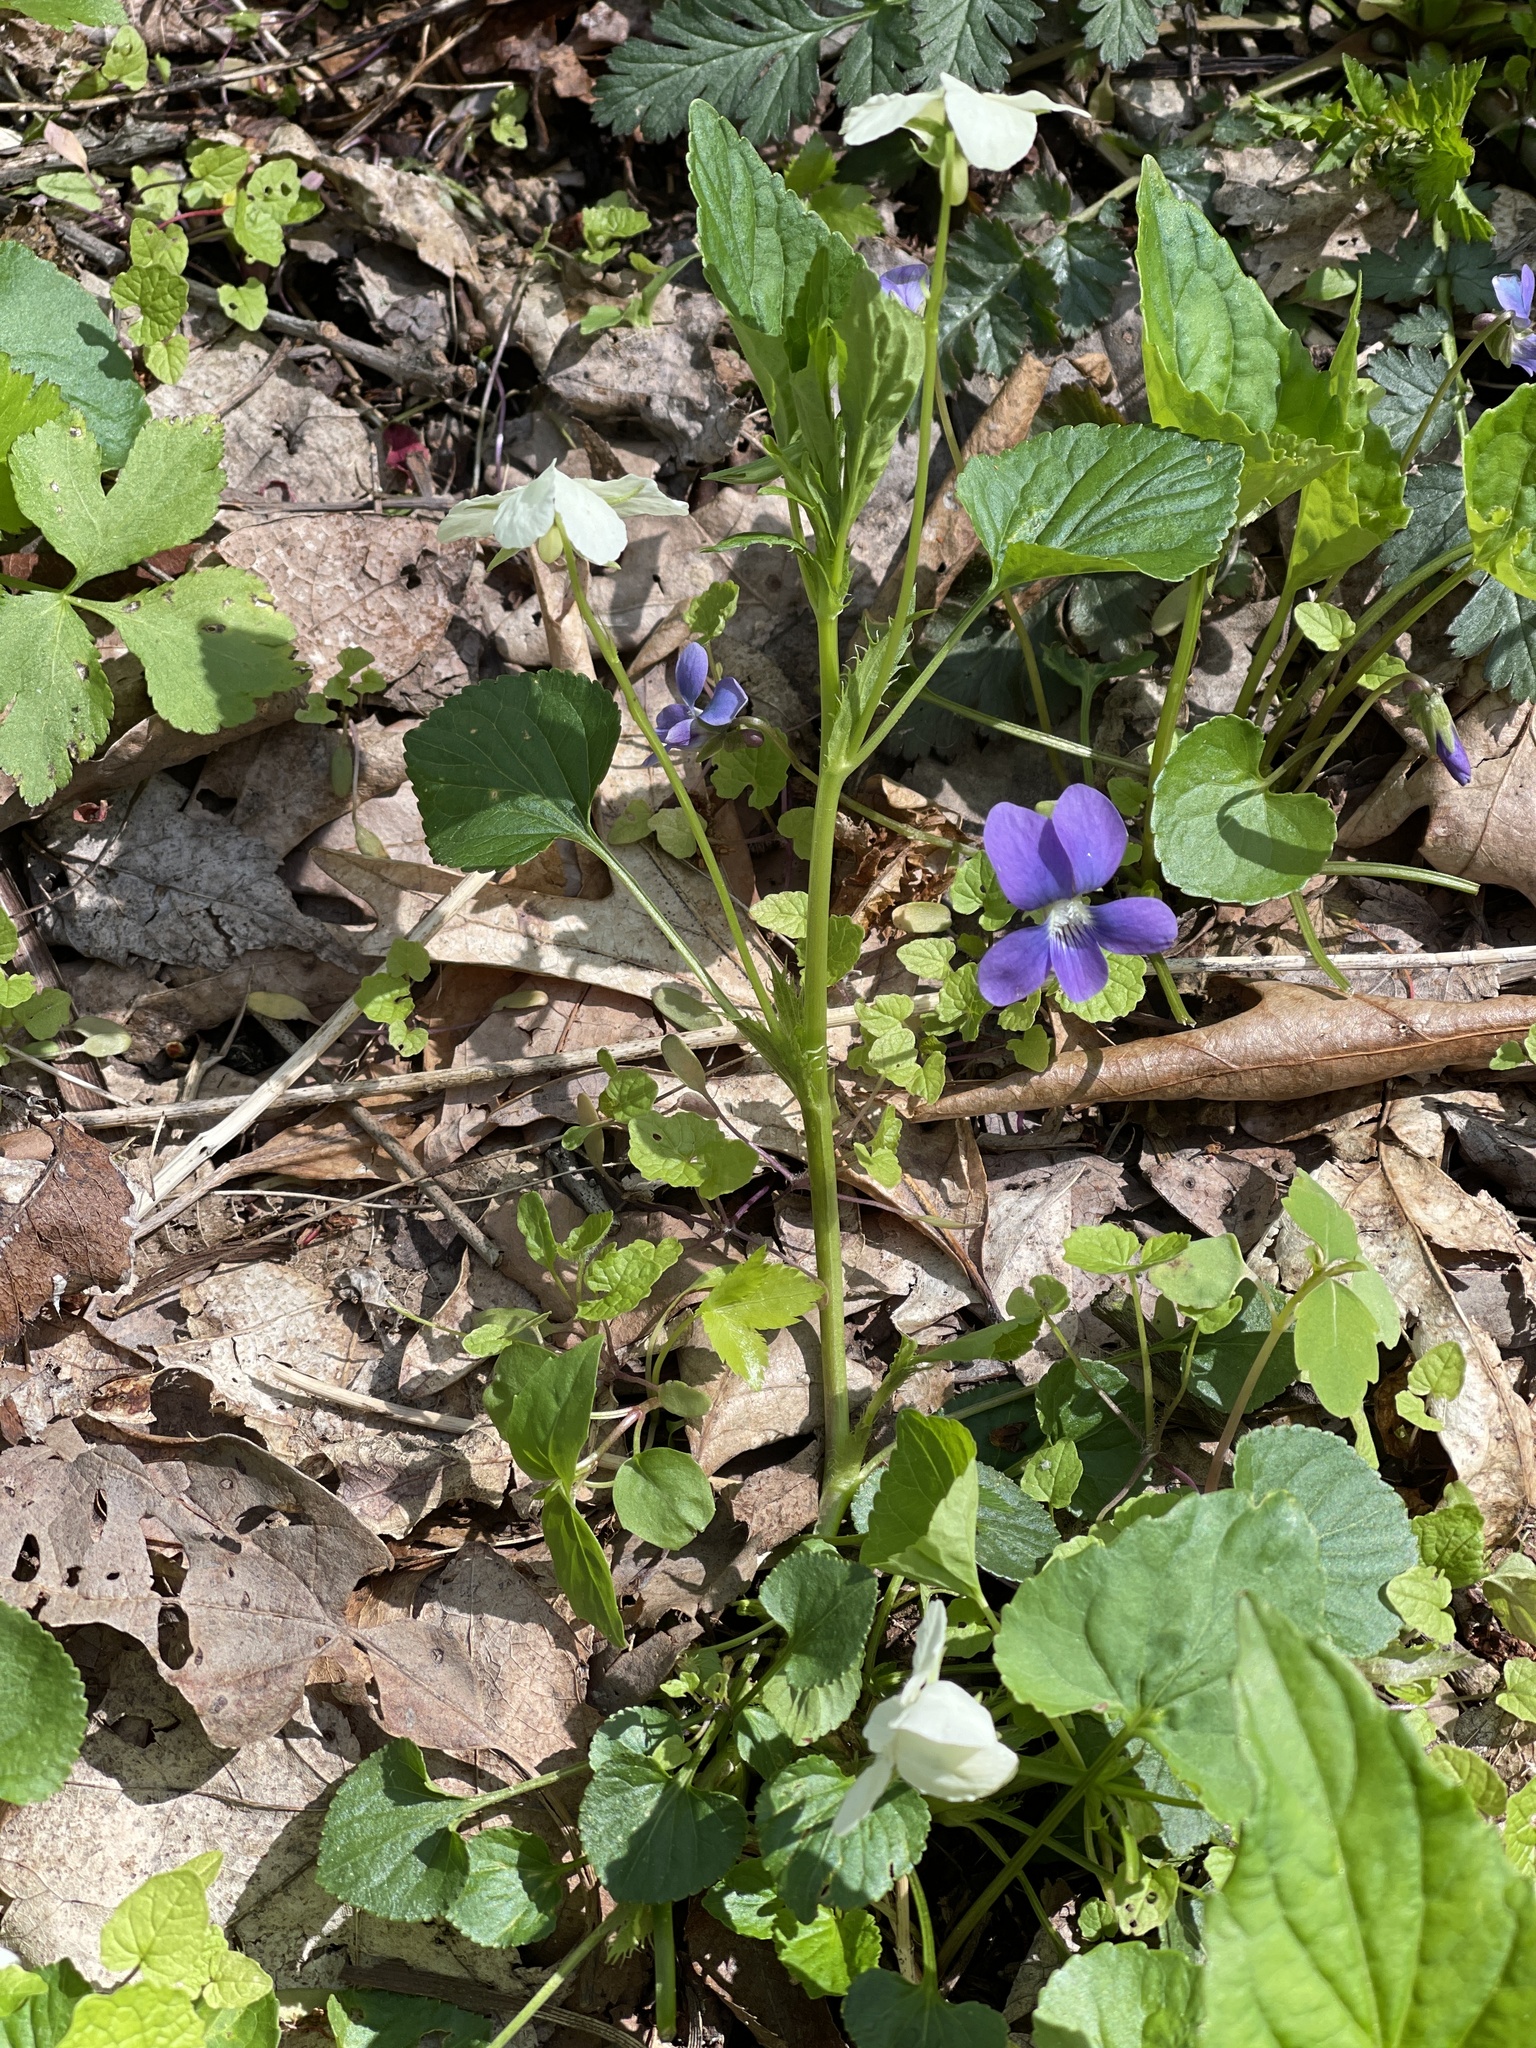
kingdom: Plantae
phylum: Tracheophyta
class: Magnoliopsida
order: Malpighiales
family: Violaceae
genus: Viola
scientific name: Viola striata
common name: Cream violet
